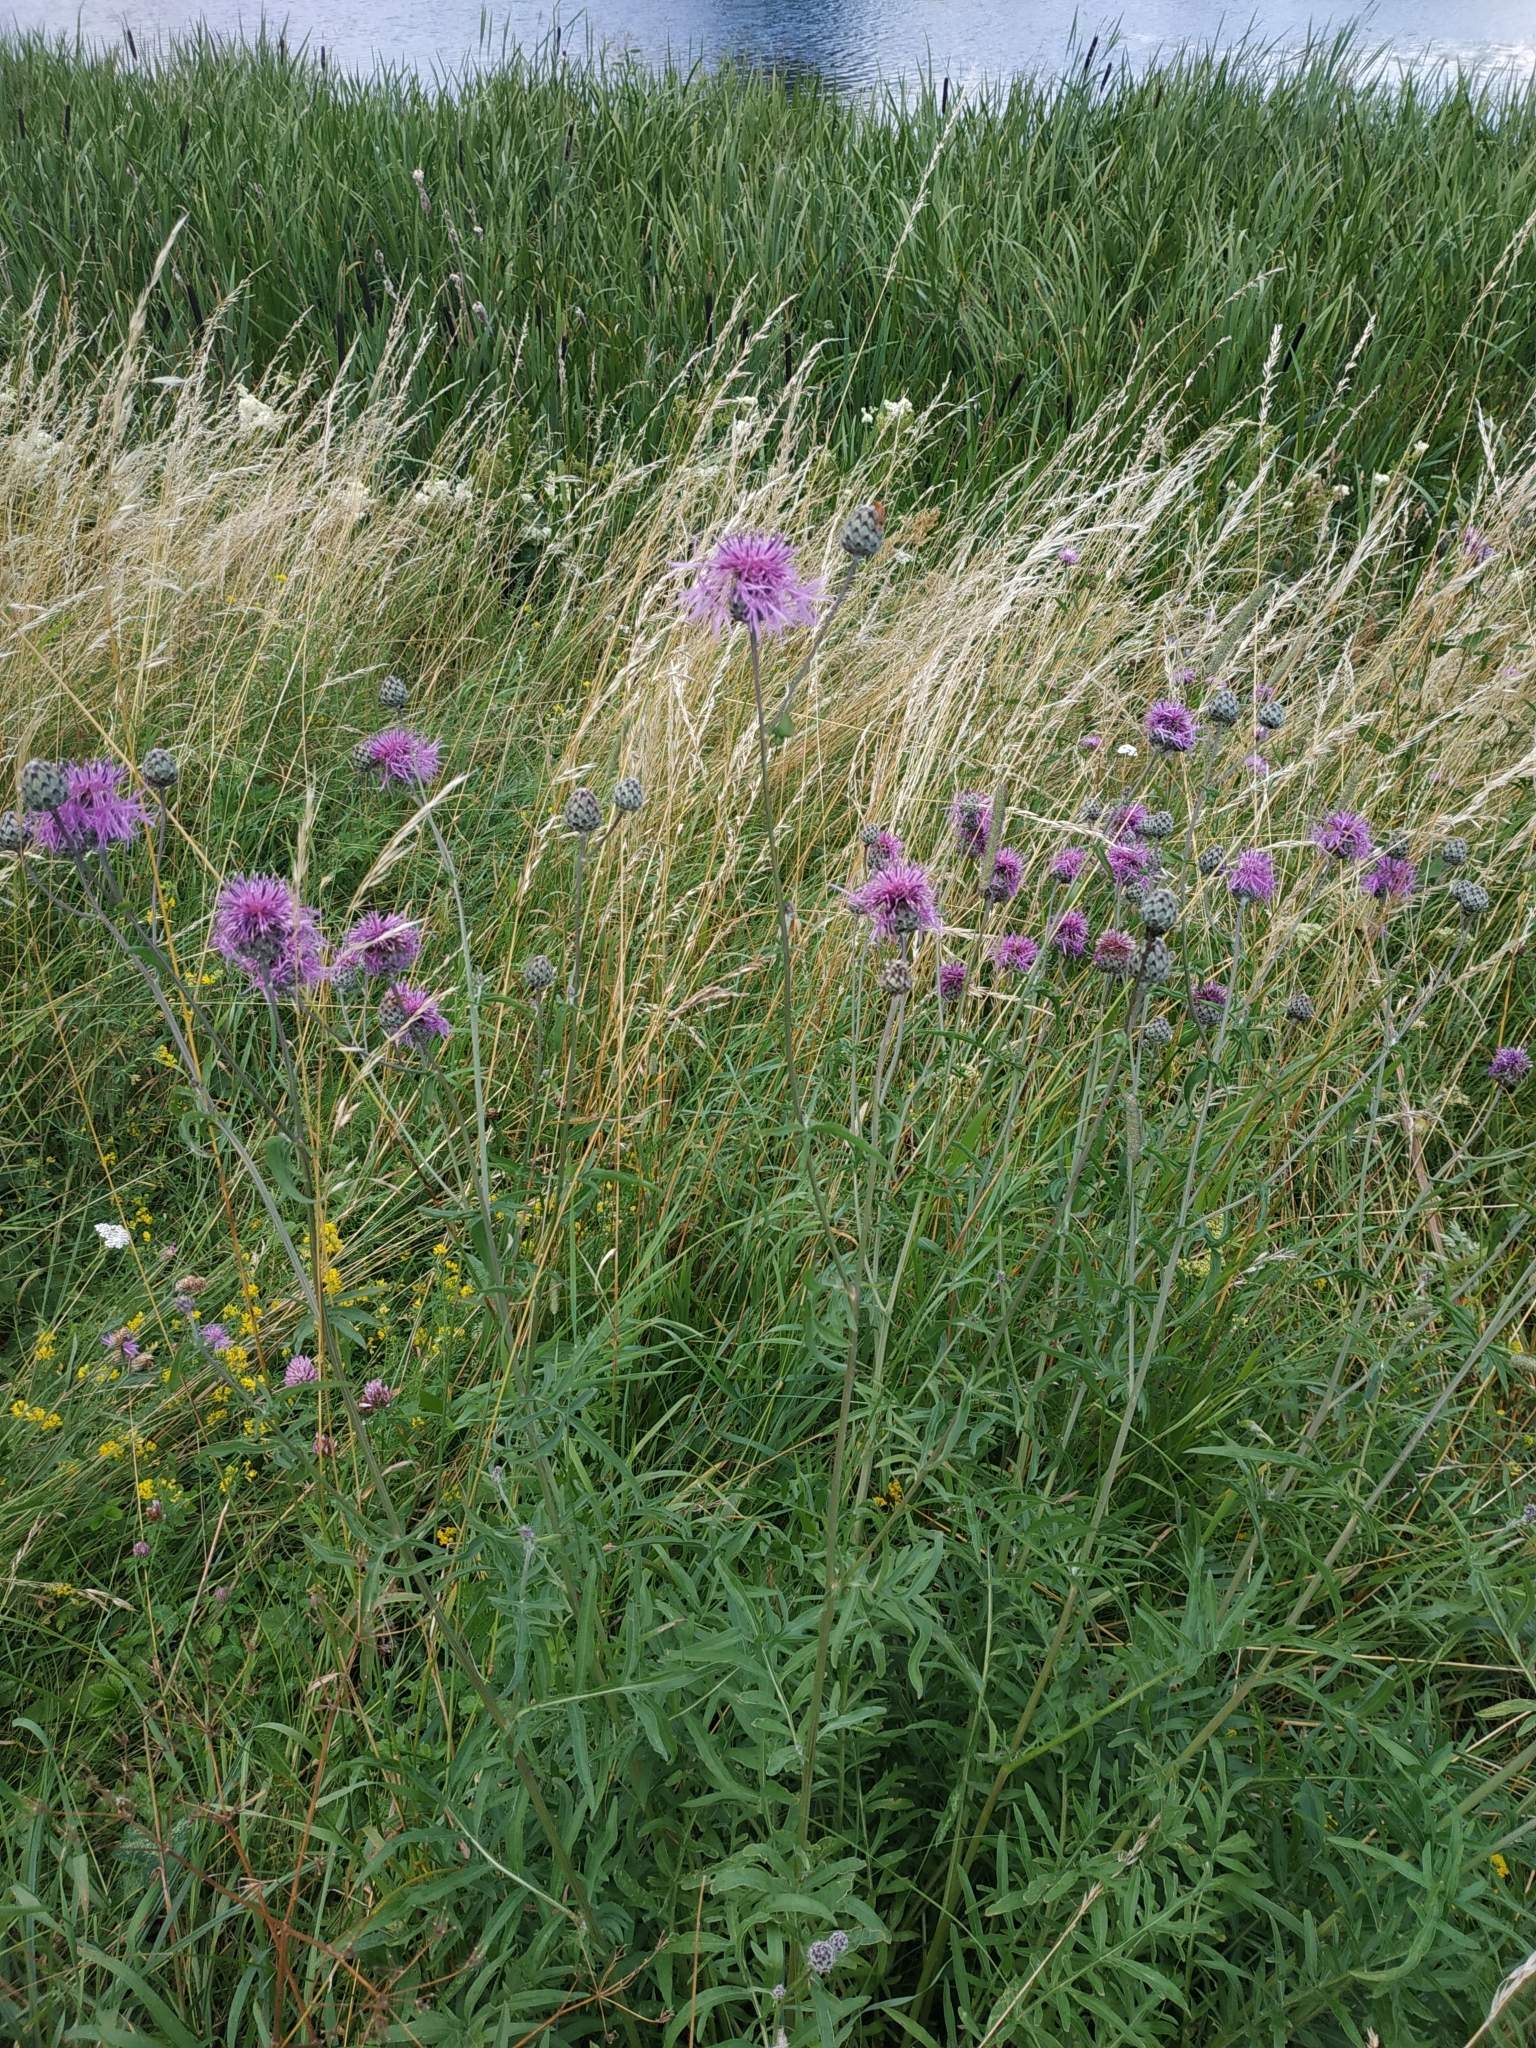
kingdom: Plantae
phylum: Tracheophyta
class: Magnoliopsida
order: Asterales
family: Asteraceae
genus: Centaurea
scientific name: Centaurea scabiosa
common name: Greater knapweed
